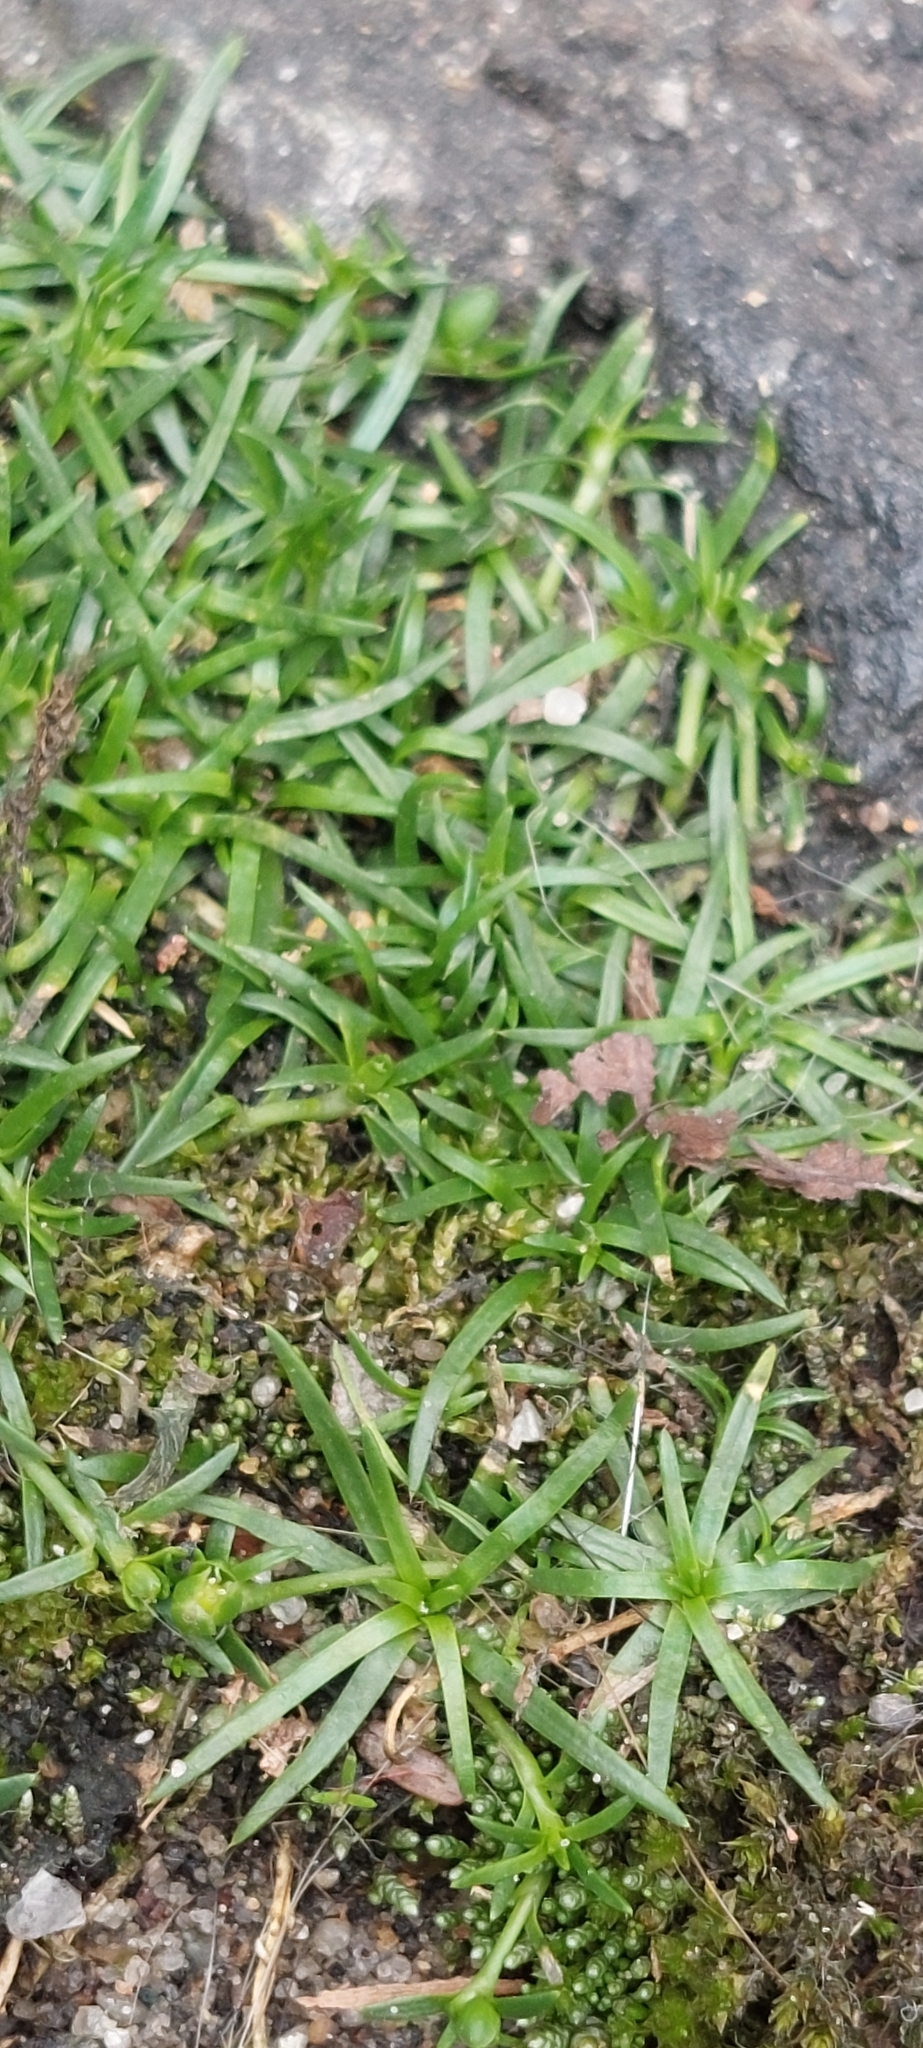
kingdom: Plantae
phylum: Tracheophyta
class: Magnoliopsida
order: Caryophyllales
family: Caryophyllaceae
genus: Sagina
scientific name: Sagina procumbens
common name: Procumbent pearlwort
